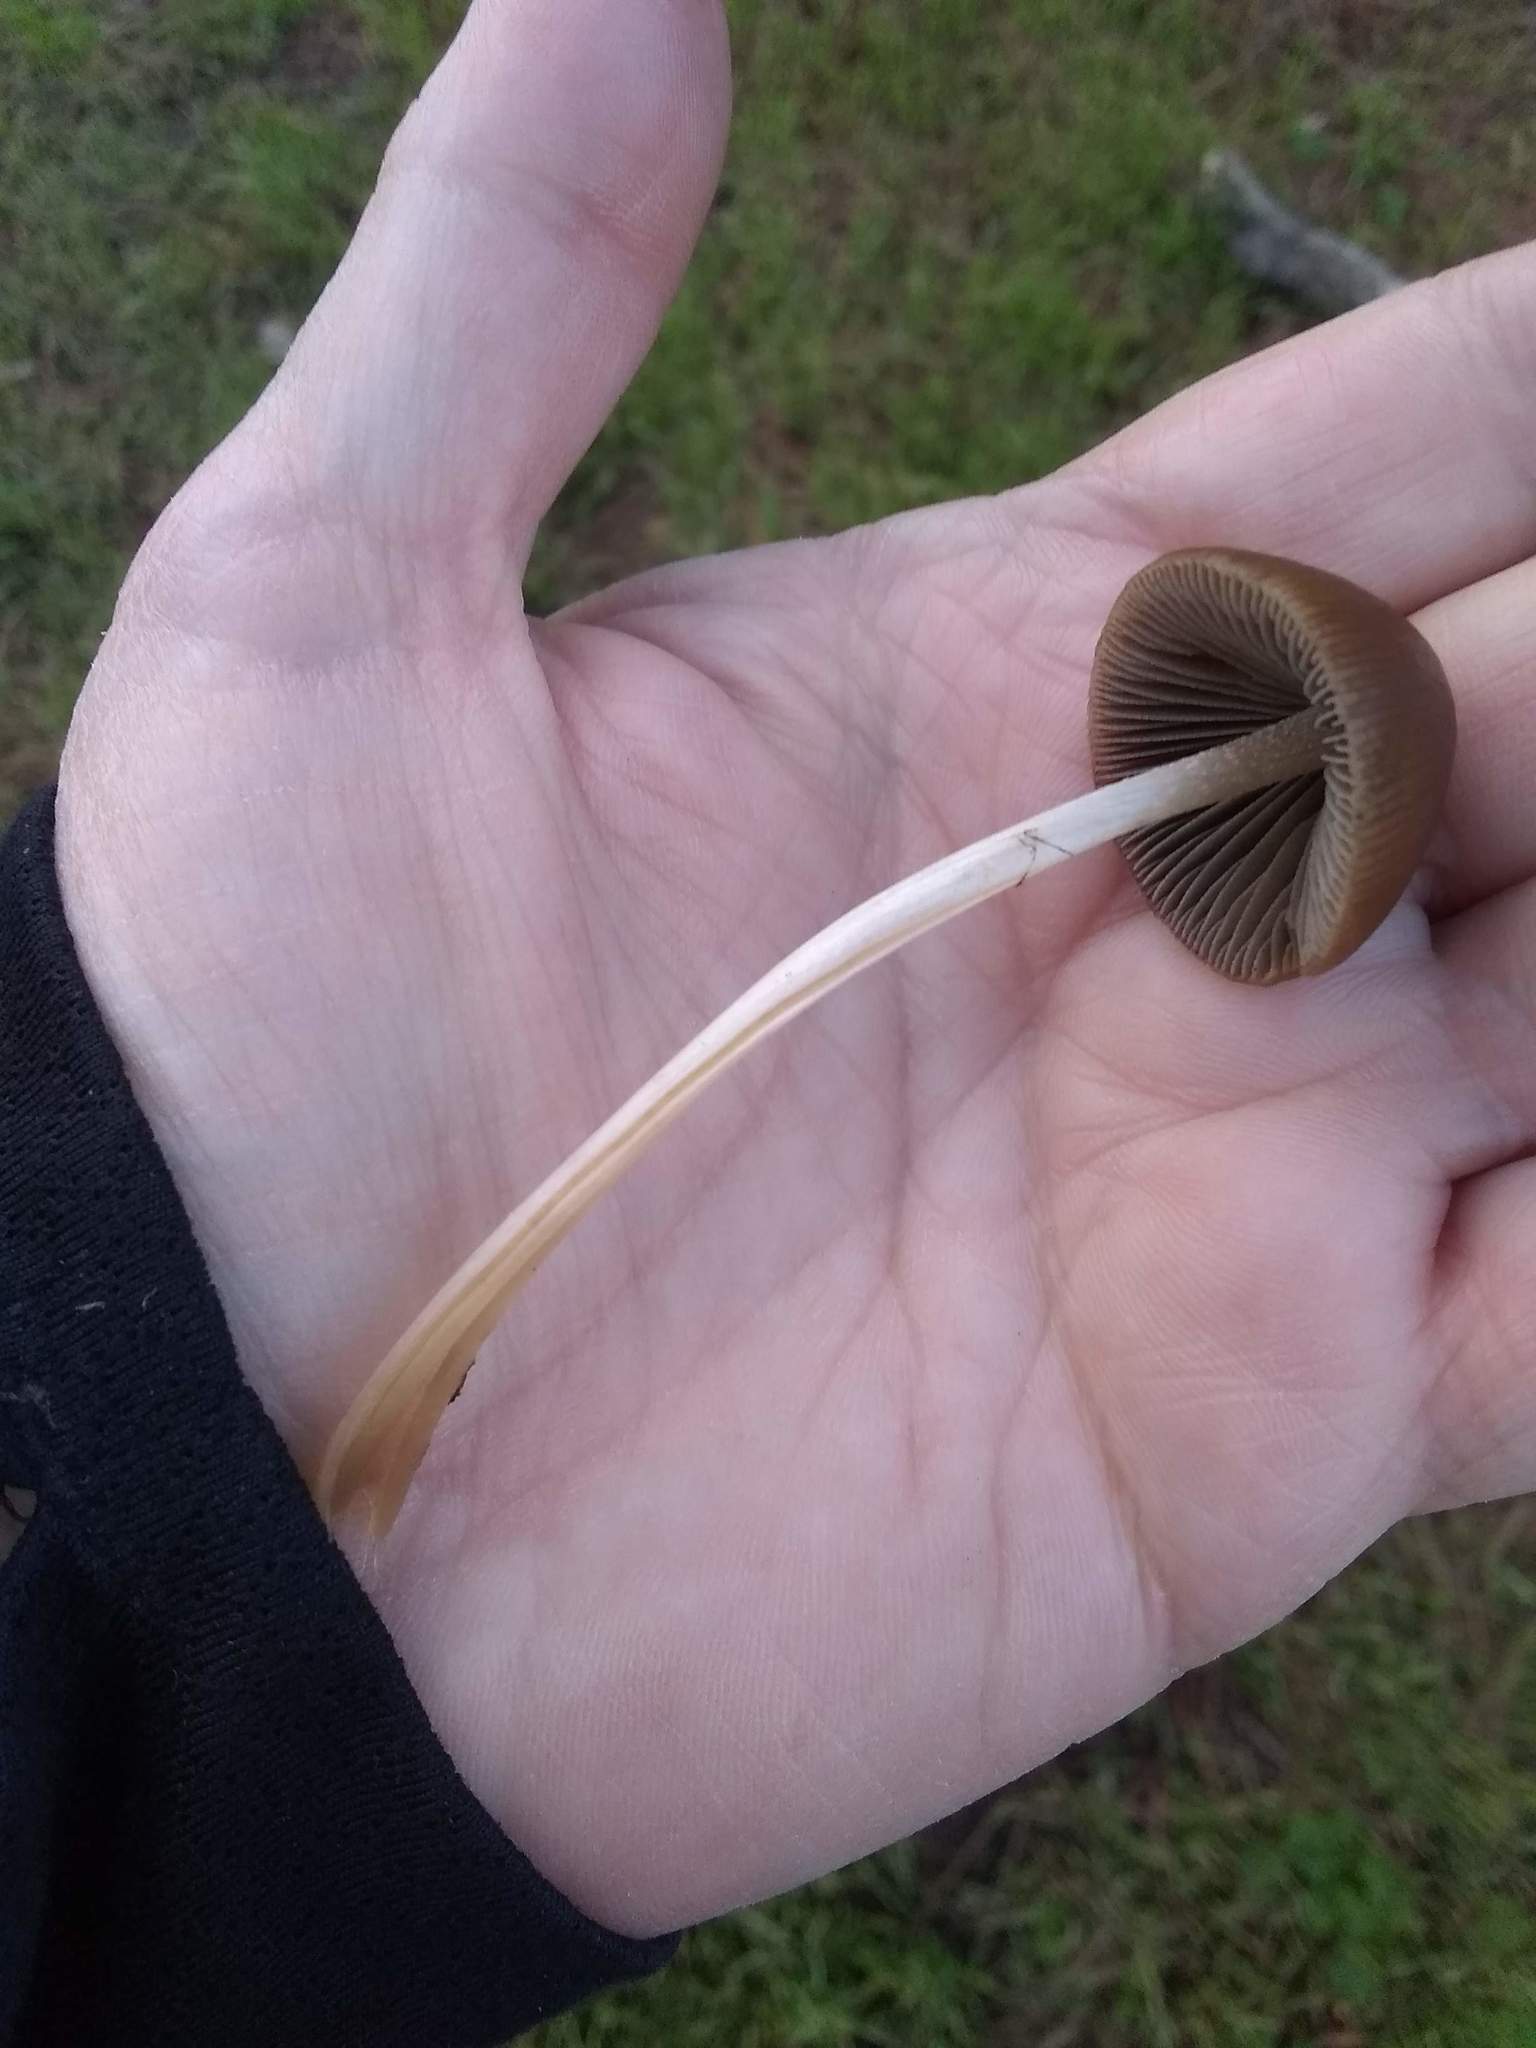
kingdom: Fungi
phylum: Basidiomycota
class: Agaricomycetes
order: Agaricales
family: Psathyrellaceae
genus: Psathyrella
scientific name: Psathyrella corrugis
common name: Red edge brittlestem
